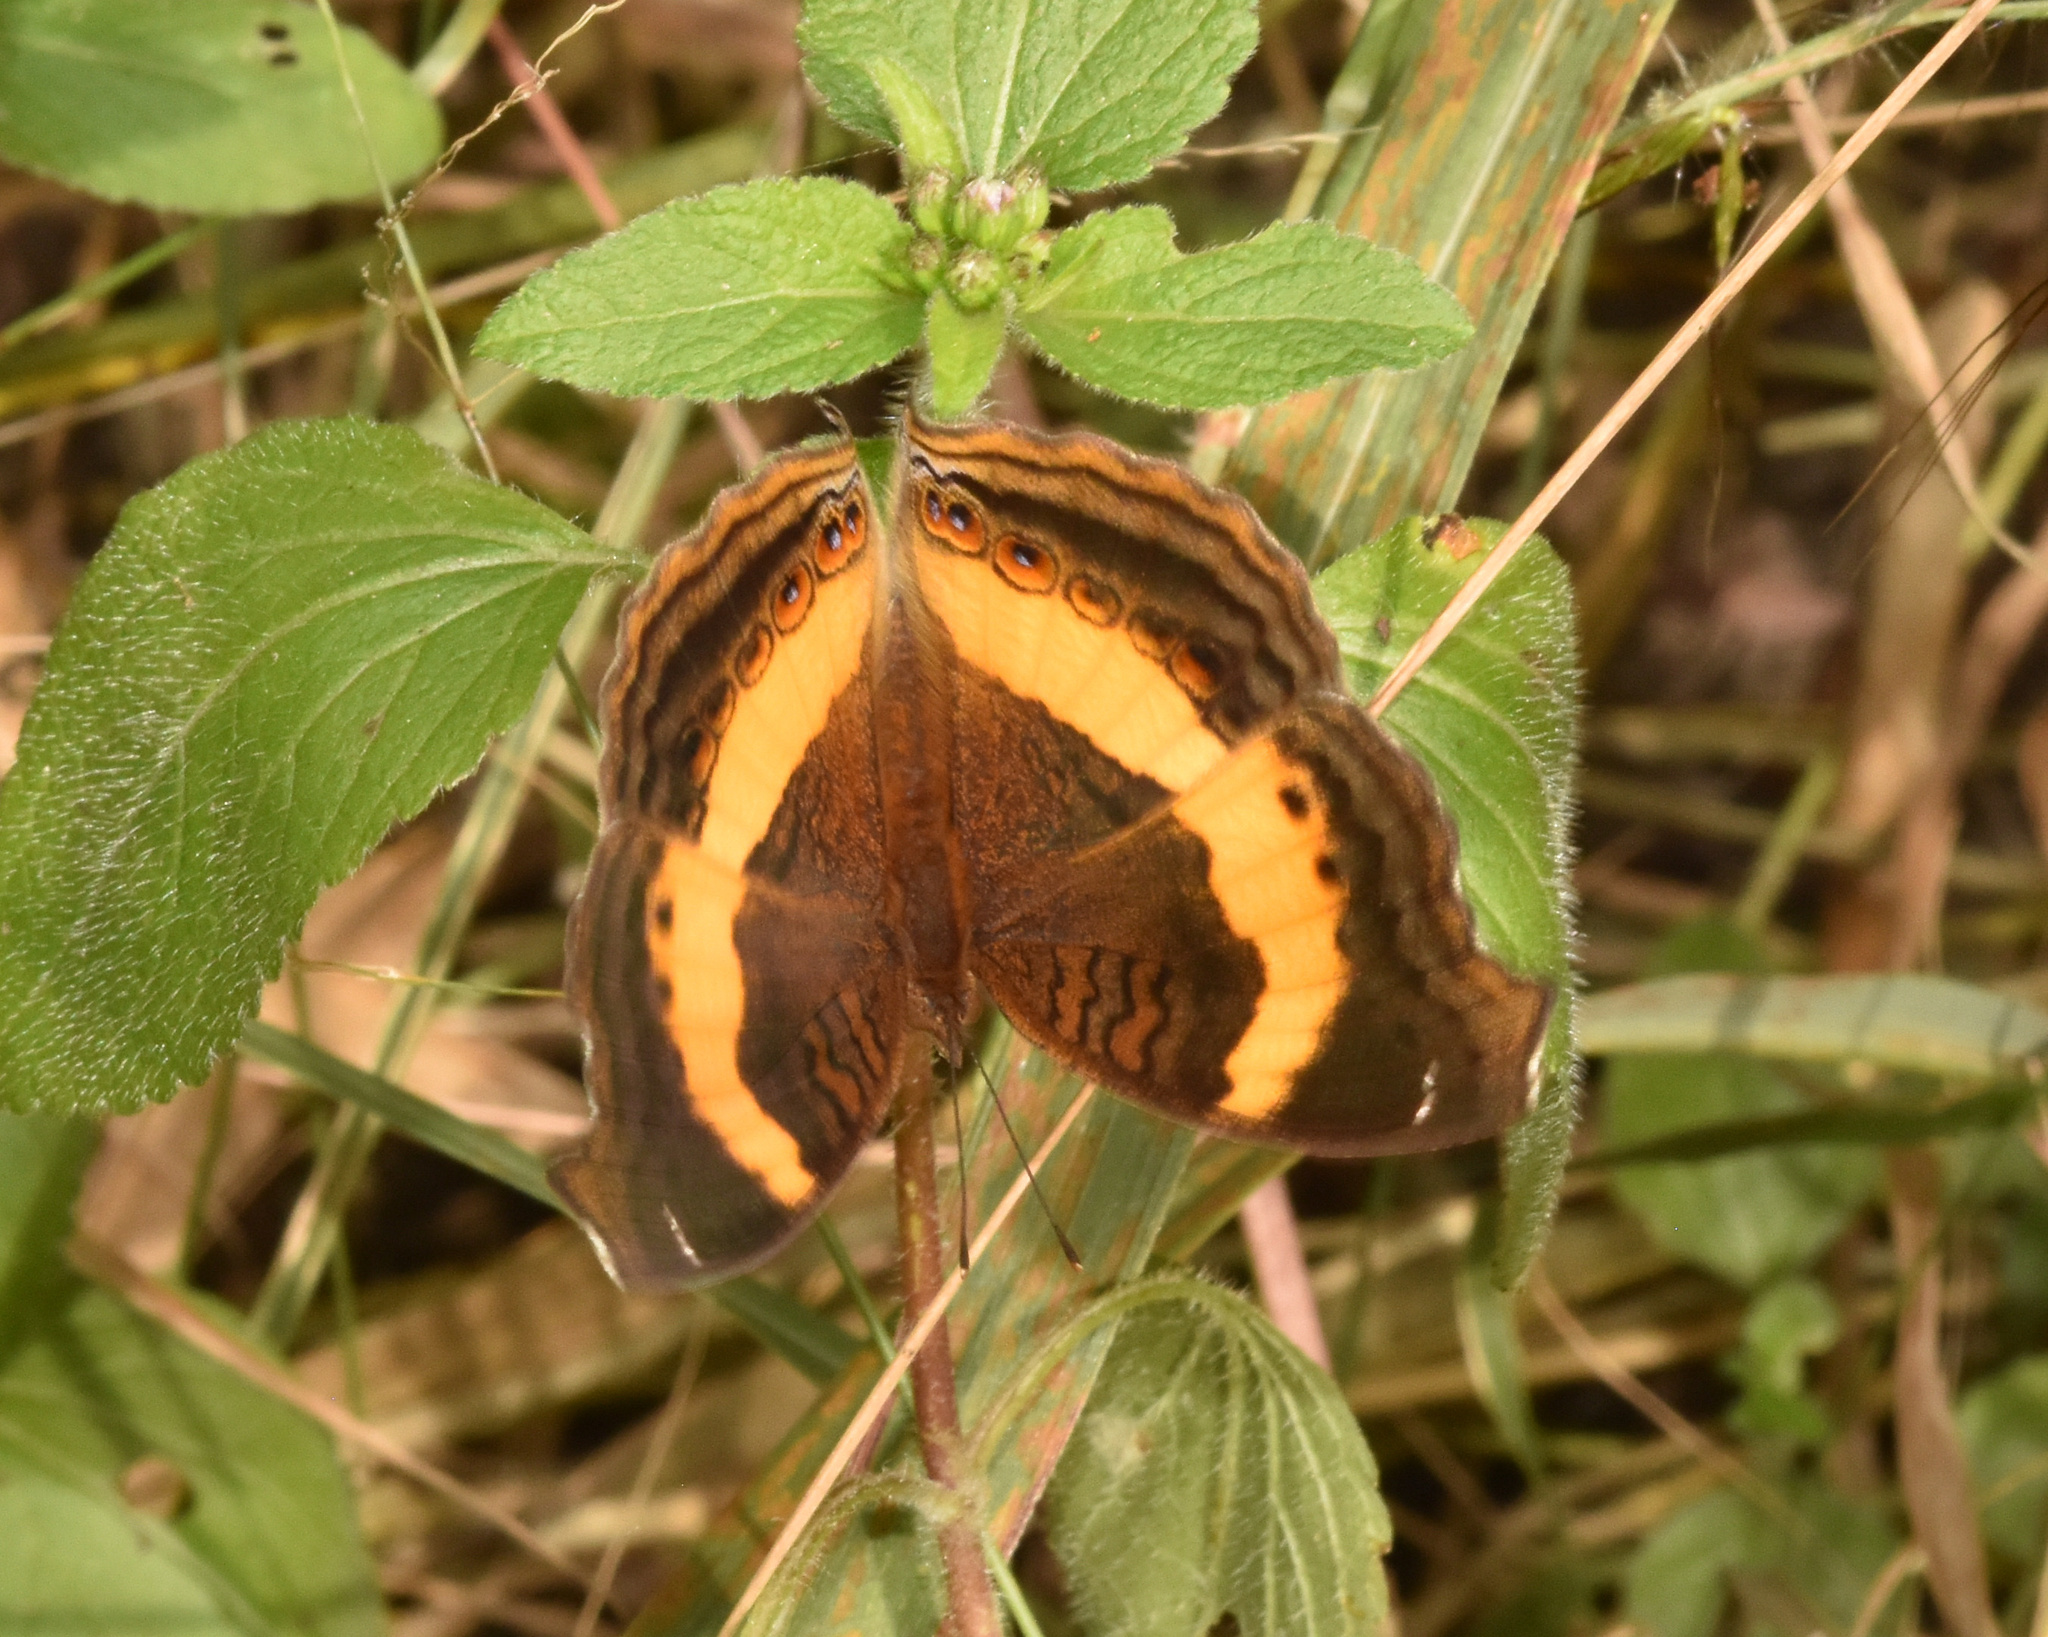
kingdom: Animalia
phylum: Arthropoda
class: Insecta
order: Lepidoptera
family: Nymphalidae
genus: Junonia
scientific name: Junonia terea
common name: Soldier pansy
